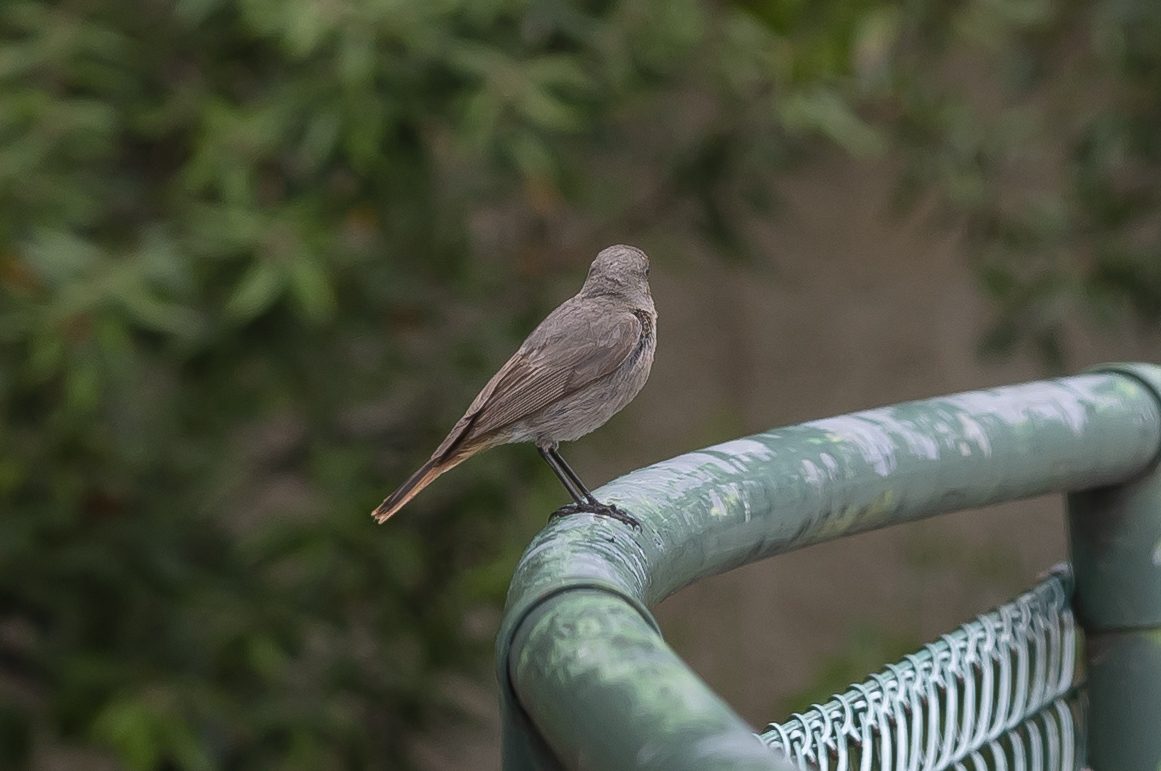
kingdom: Animalia
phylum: Chordata
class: Aves
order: Passeriformes
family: Muscicapidae
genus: Phoenicurus
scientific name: Phoenicurus ochruros
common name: Black redstart
